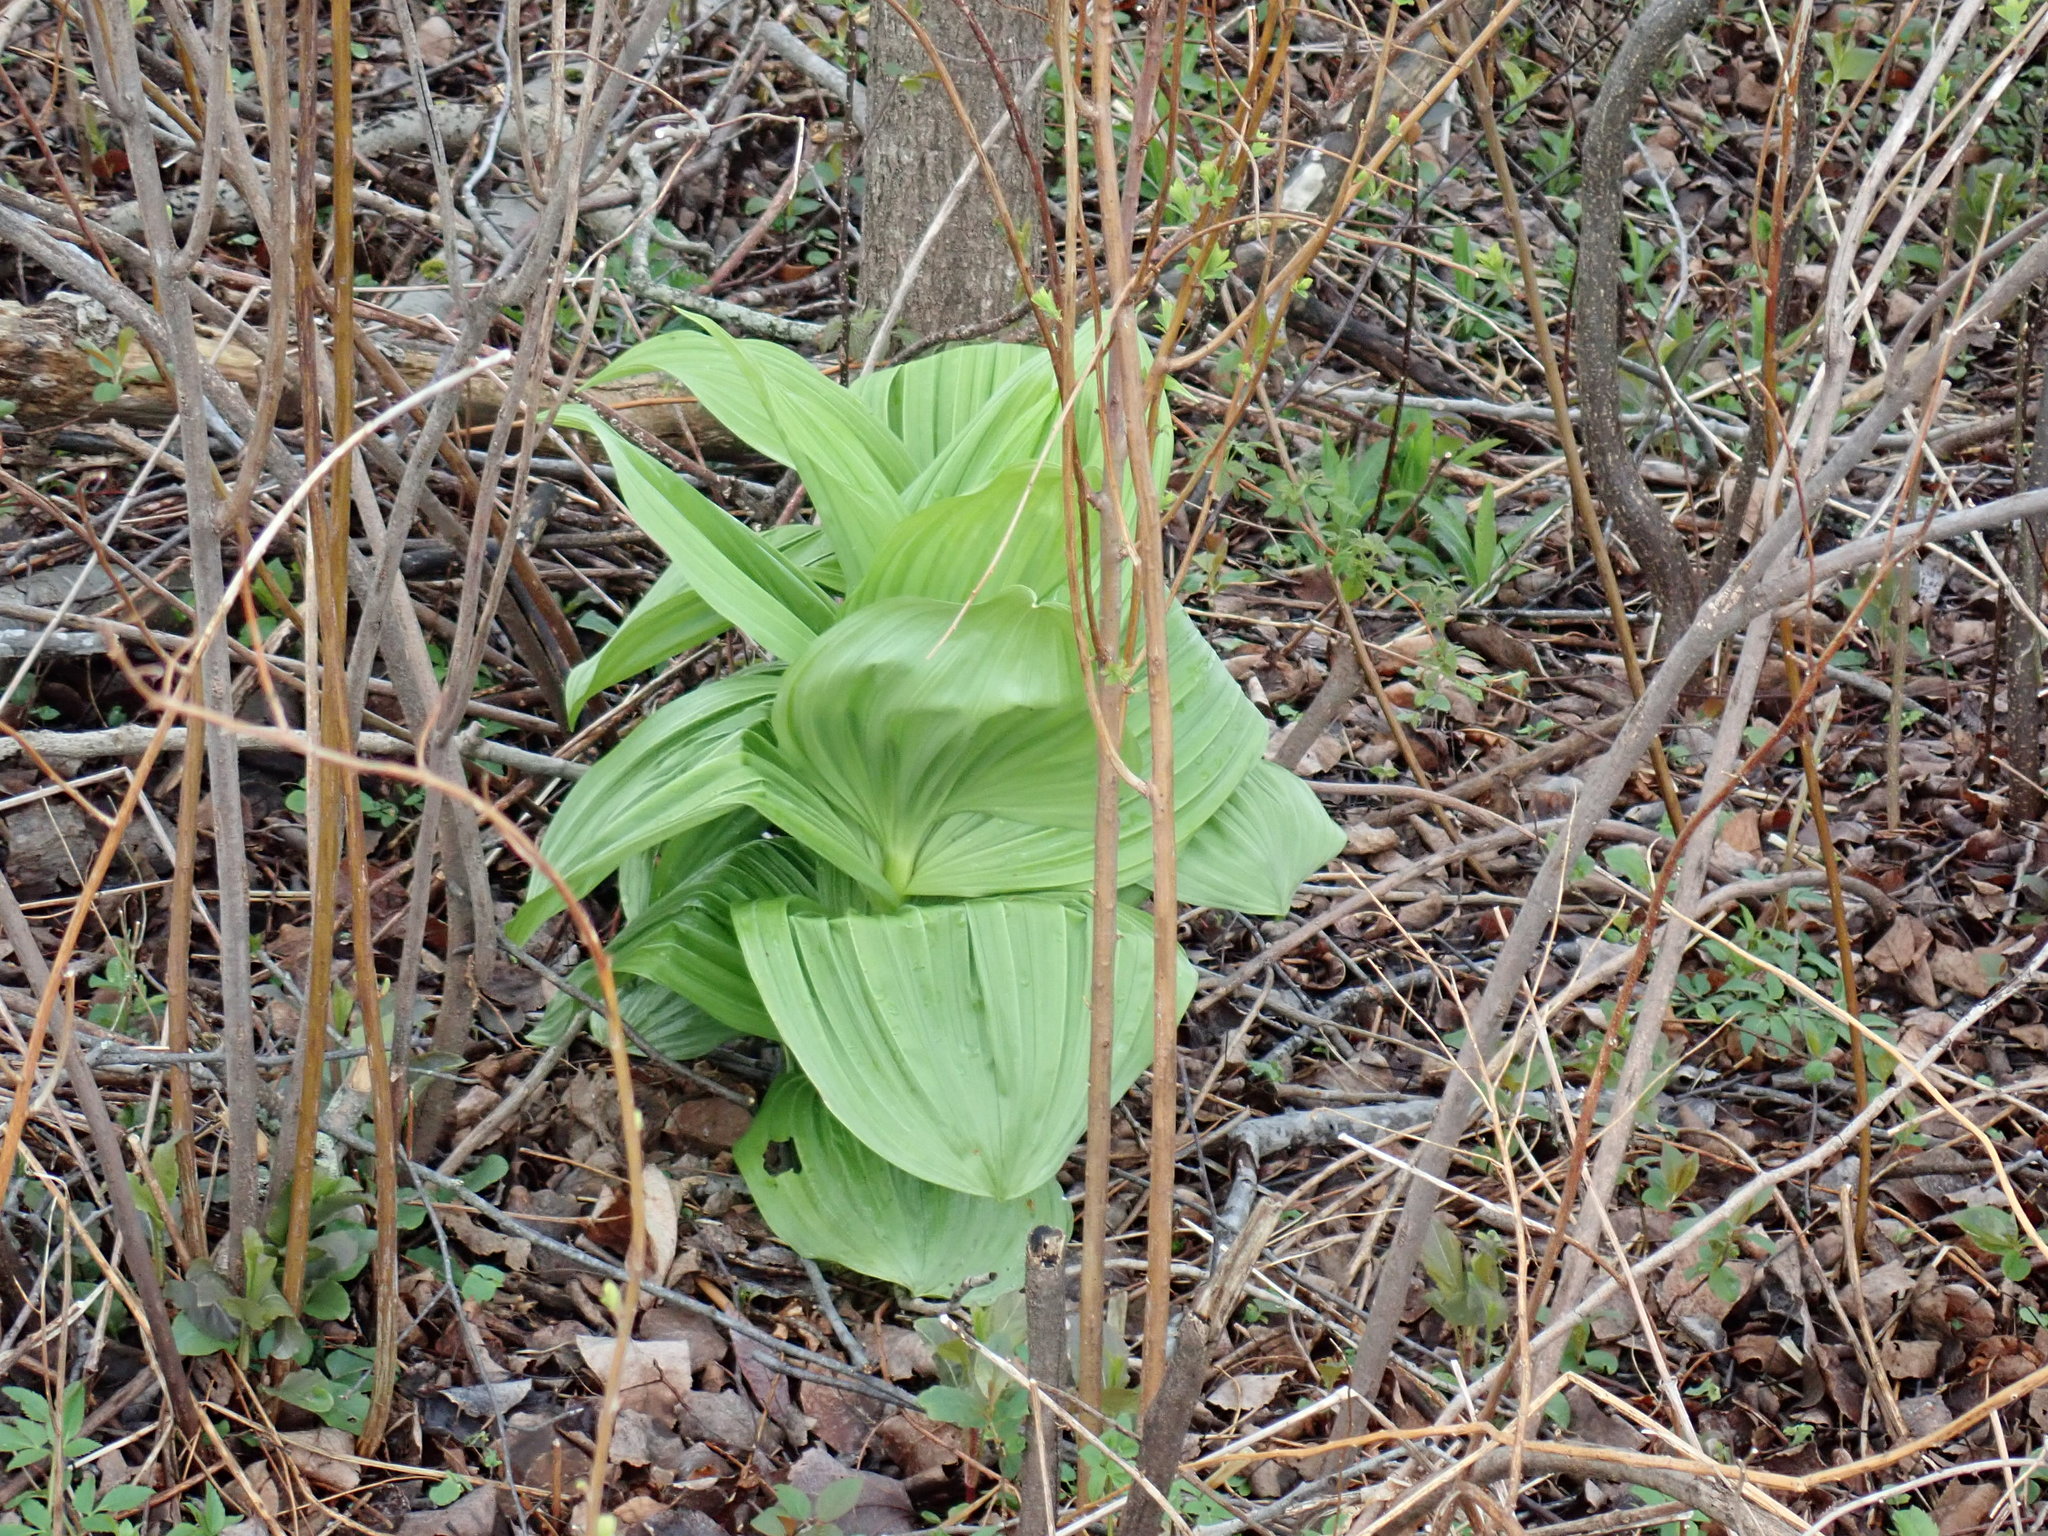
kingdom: Plantae
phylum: Tracheophyta
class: Liliopsida
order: Liliales
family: Melanthiaceae
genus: Veratrum
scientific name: Veratrum viride
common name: American false hellebore
